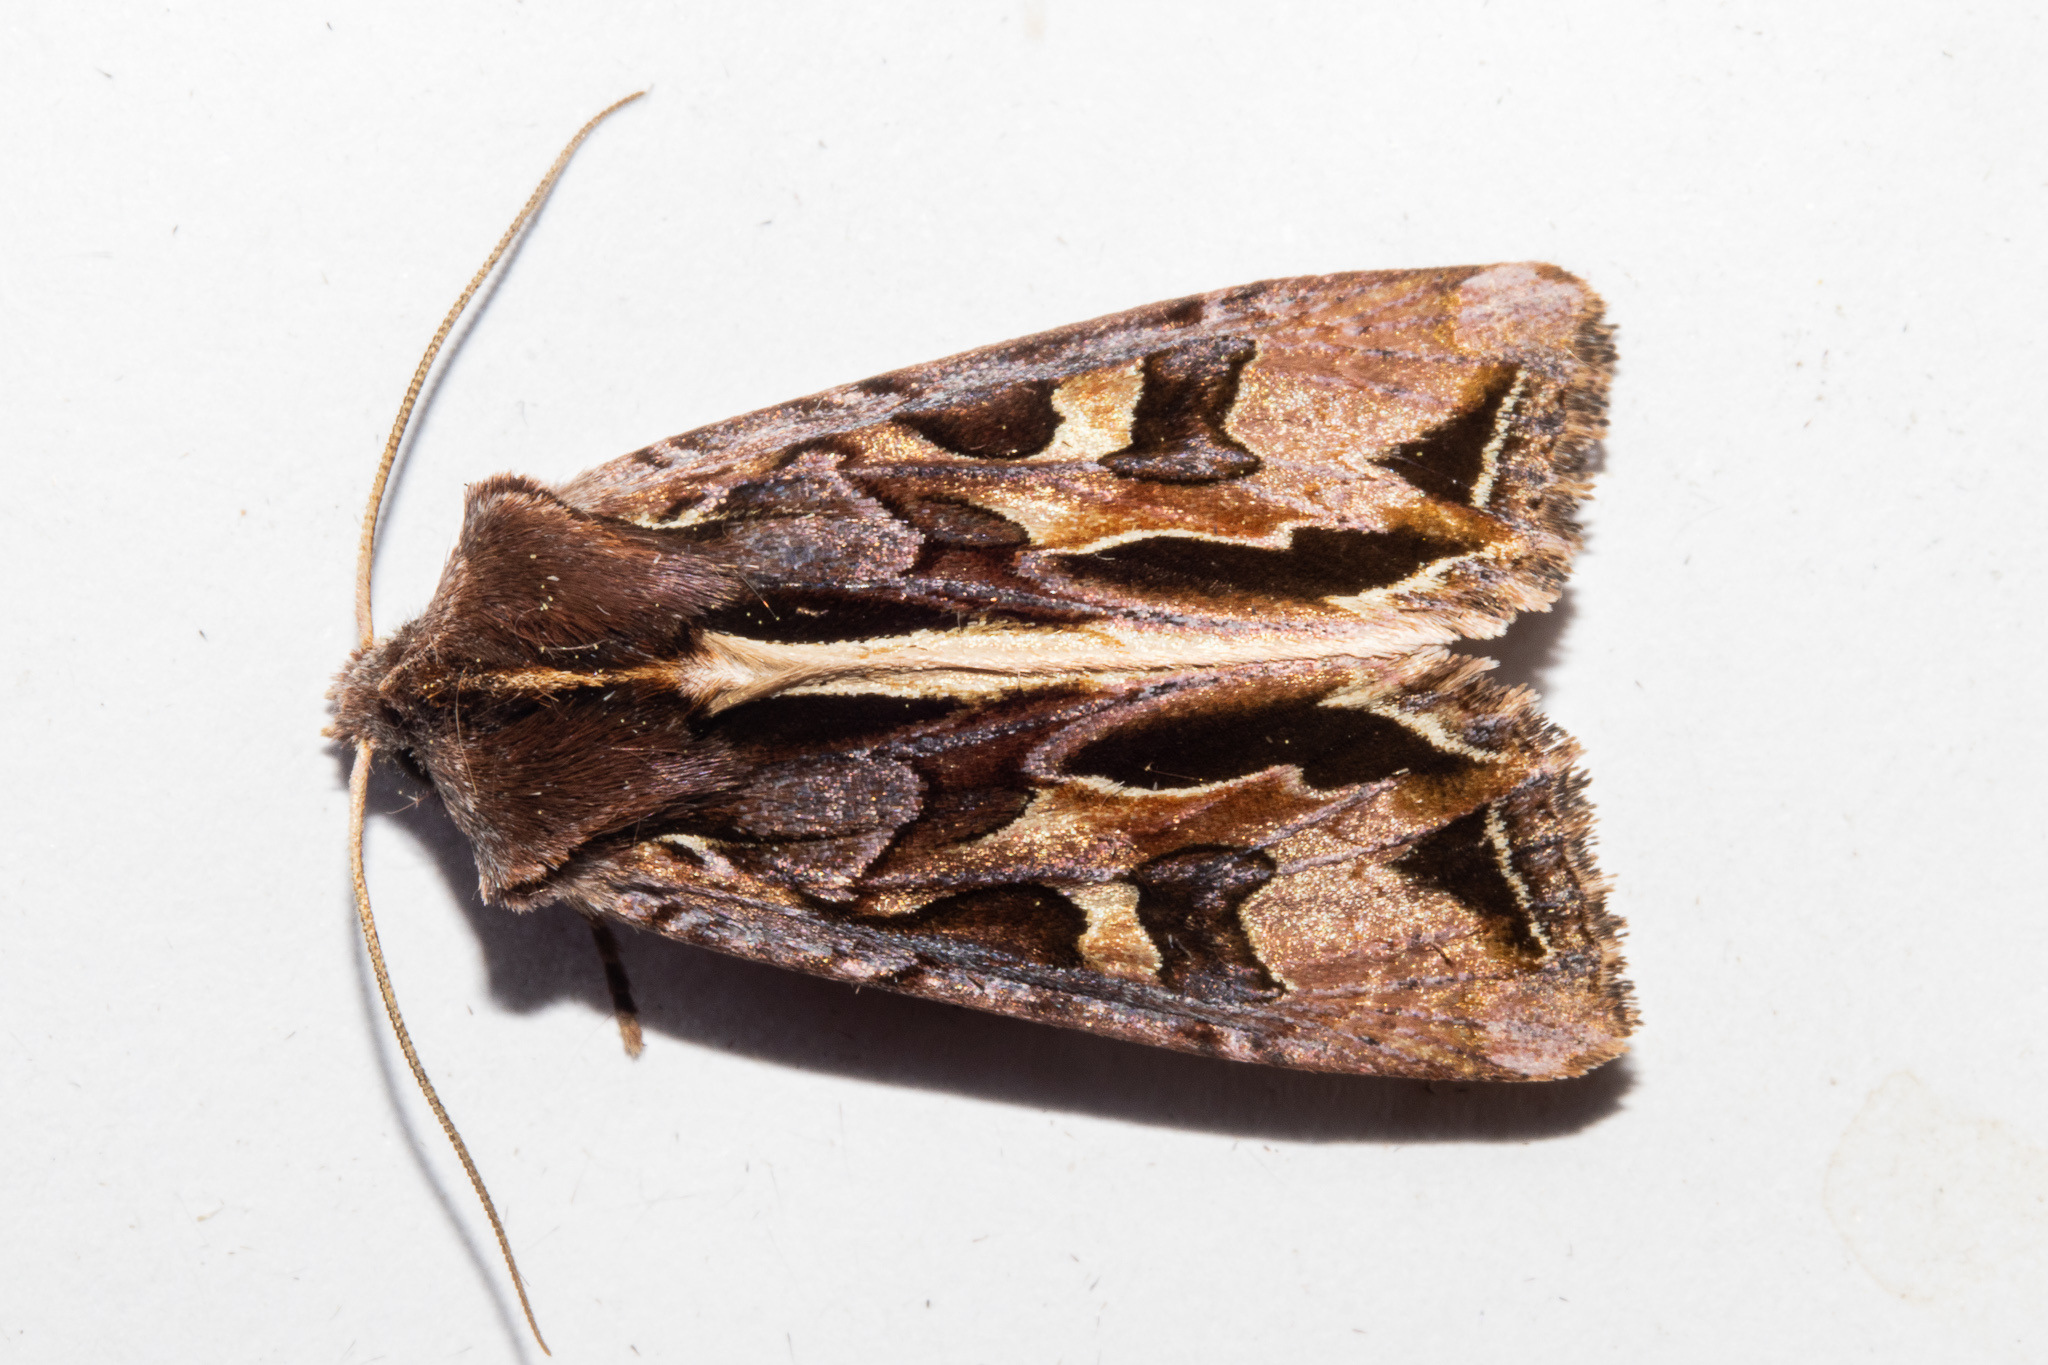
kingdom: Animalia
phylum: Arthropoda
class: Insecta
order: Lepidoptera
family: Noctuidae
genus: Ichneutica
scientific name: Ichneutica
